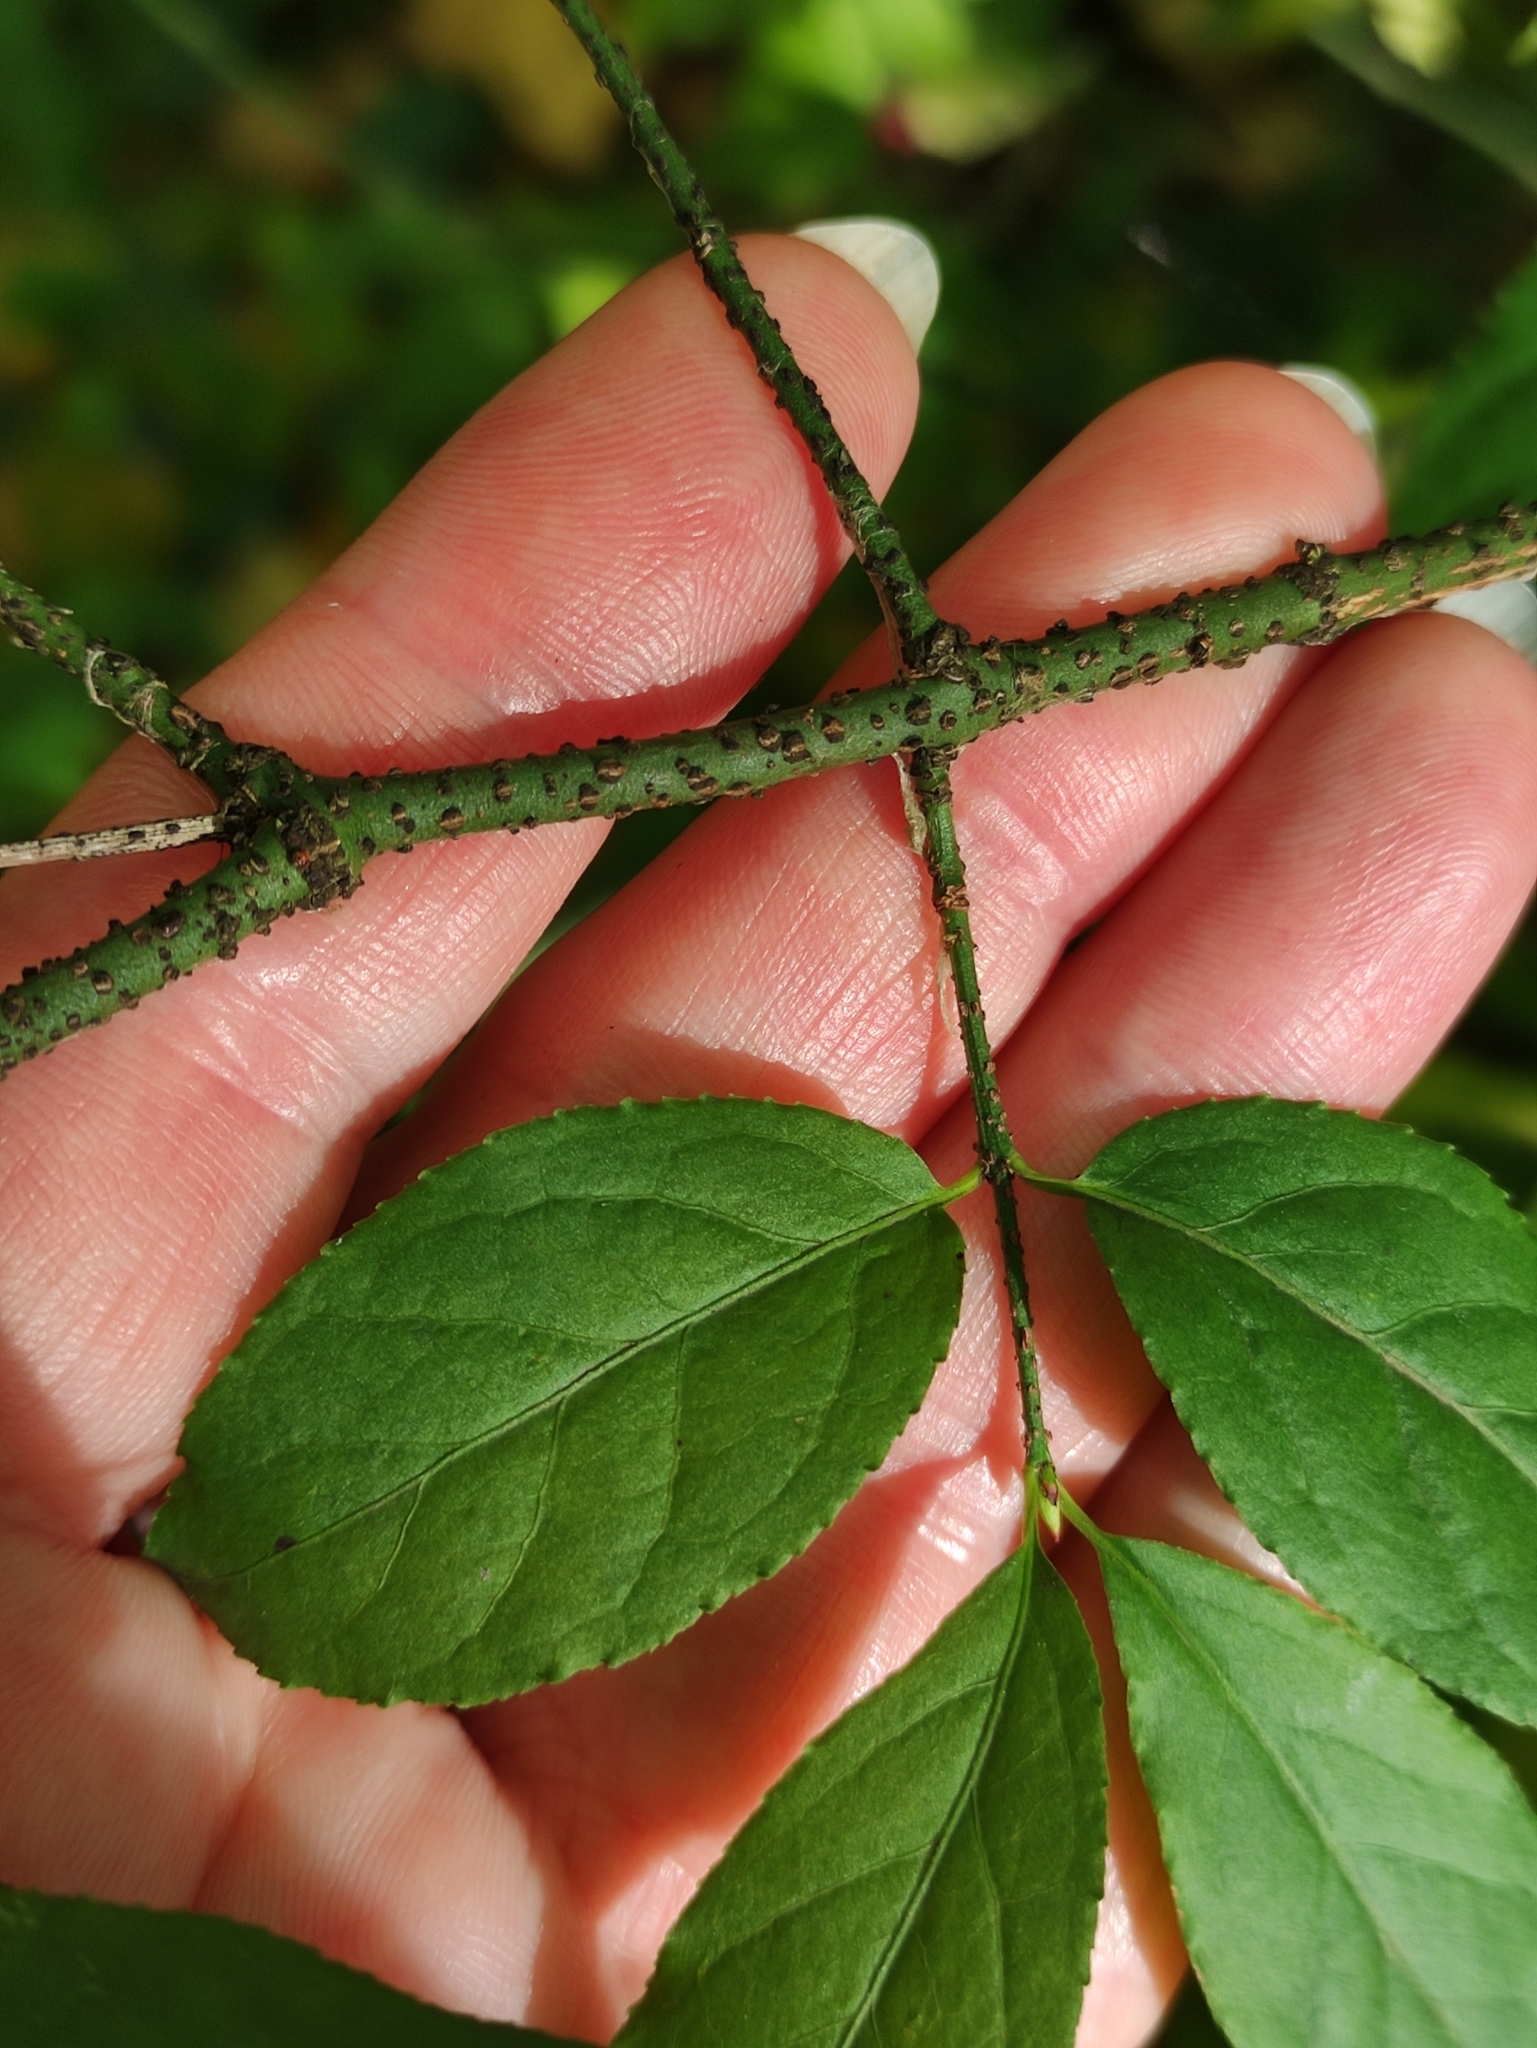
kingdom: Plantae
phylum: Tracheophyta
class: Magnoliopsida
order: Celastrales
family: Celastraceae
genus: Euonymus
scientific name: Euonymus verrucosus
